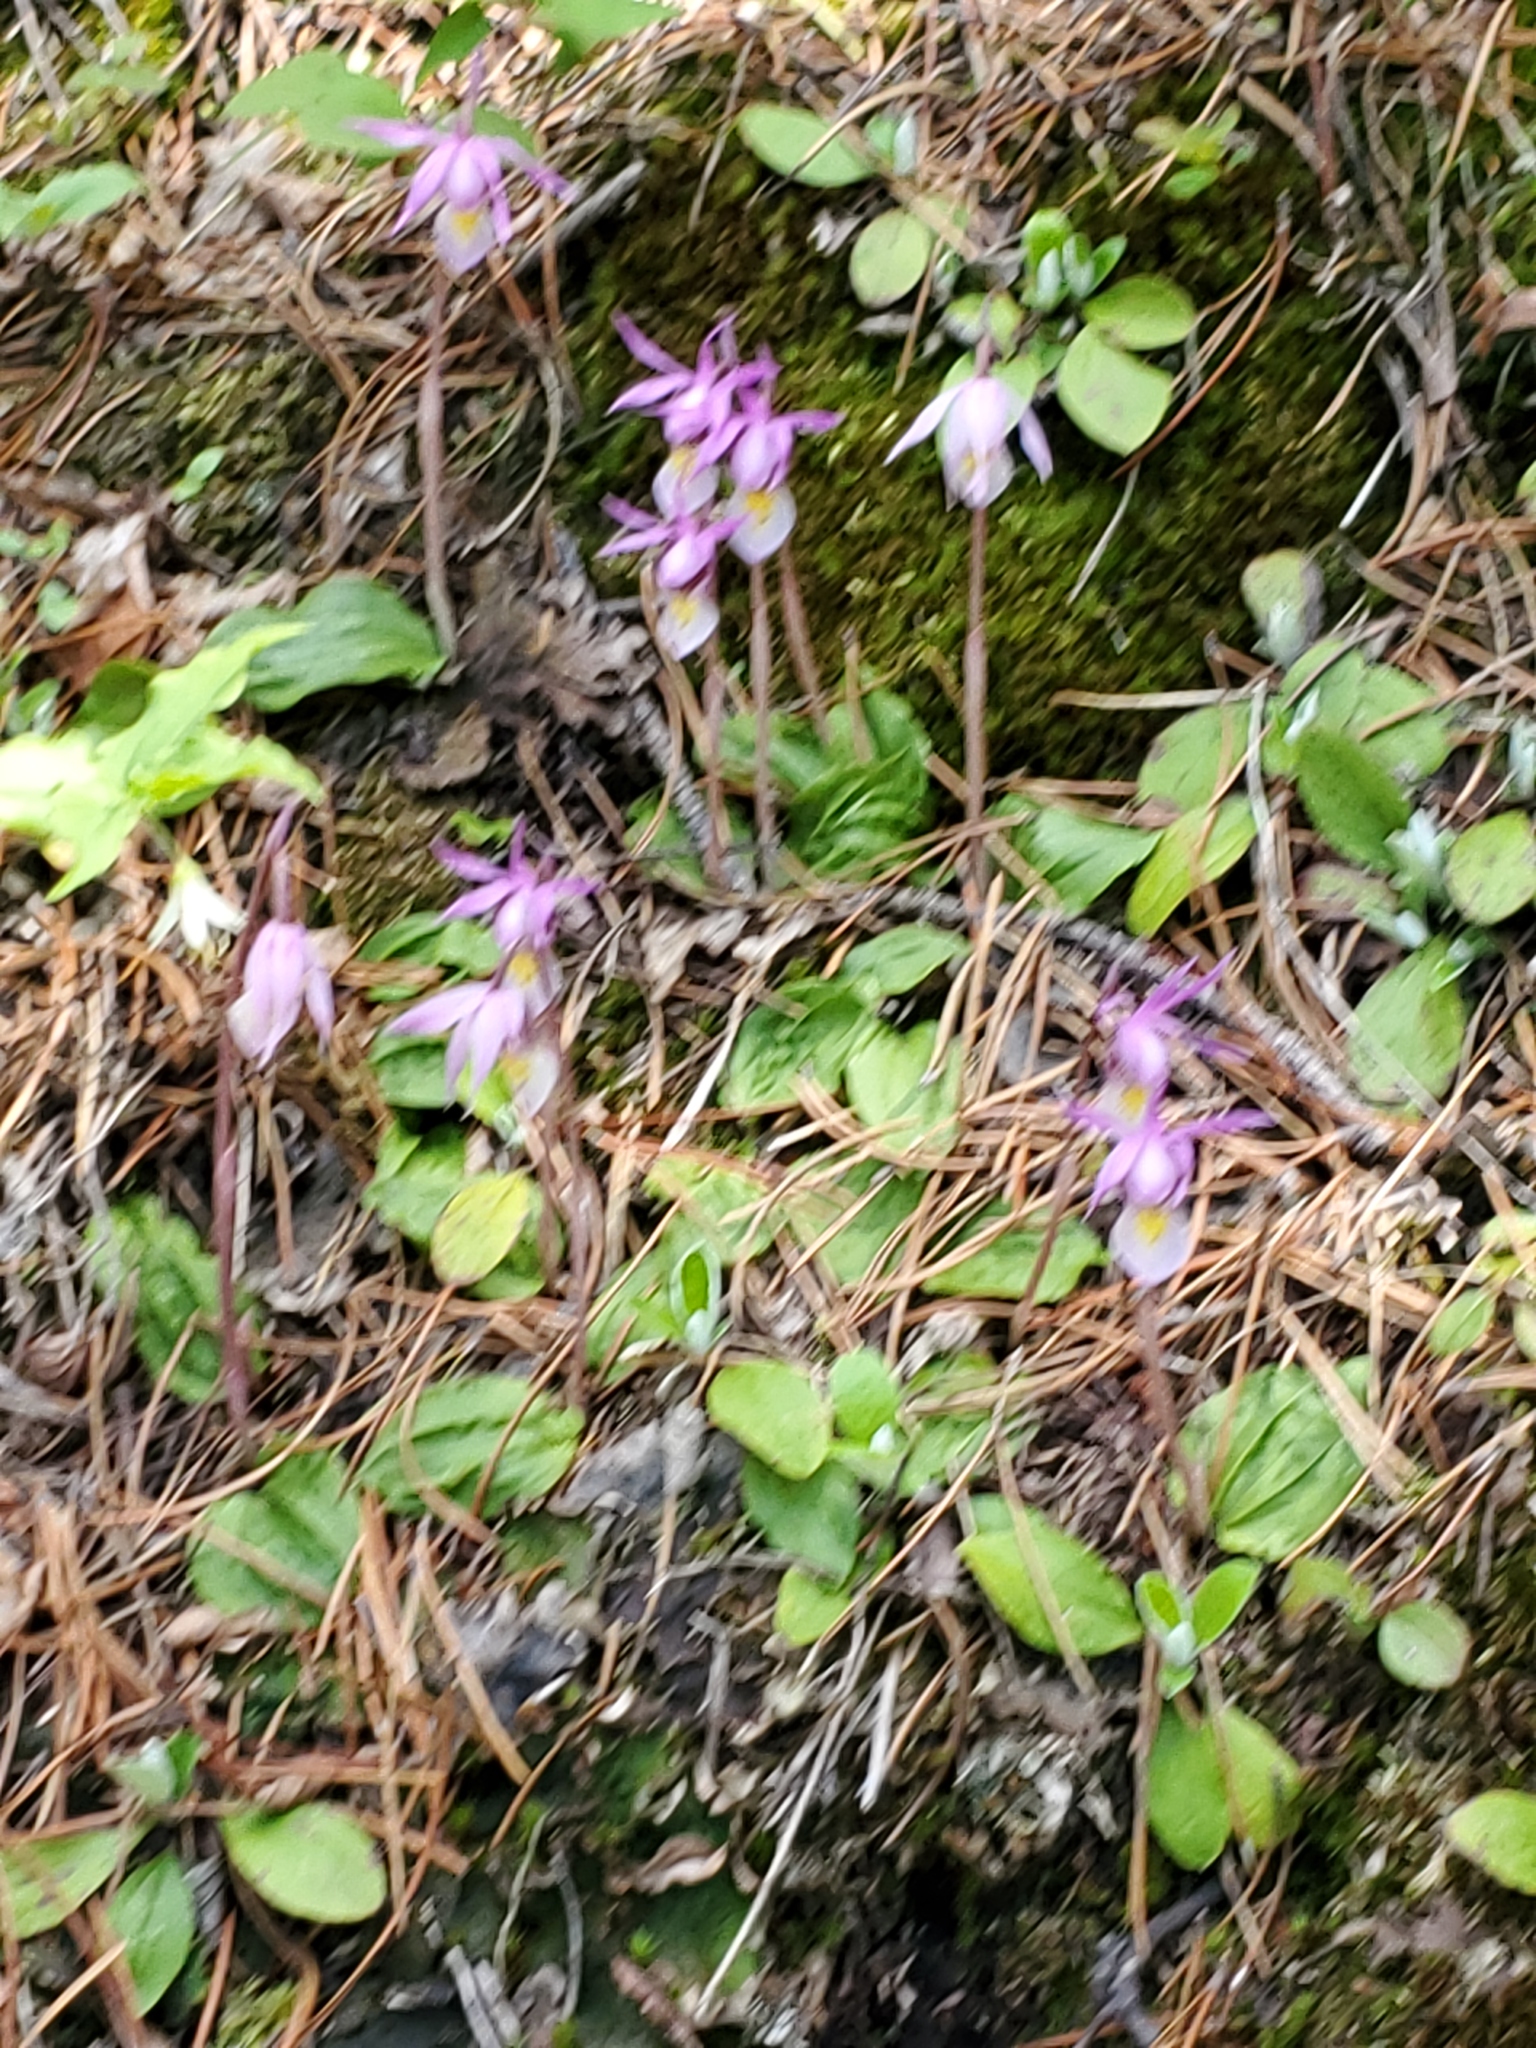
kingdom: Plantae
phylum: Tracheophyta
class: Liliopsida
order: Asparagales
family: Orchidaceae
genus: Calypso
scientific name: Calypso bulbosa
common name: Calypso
